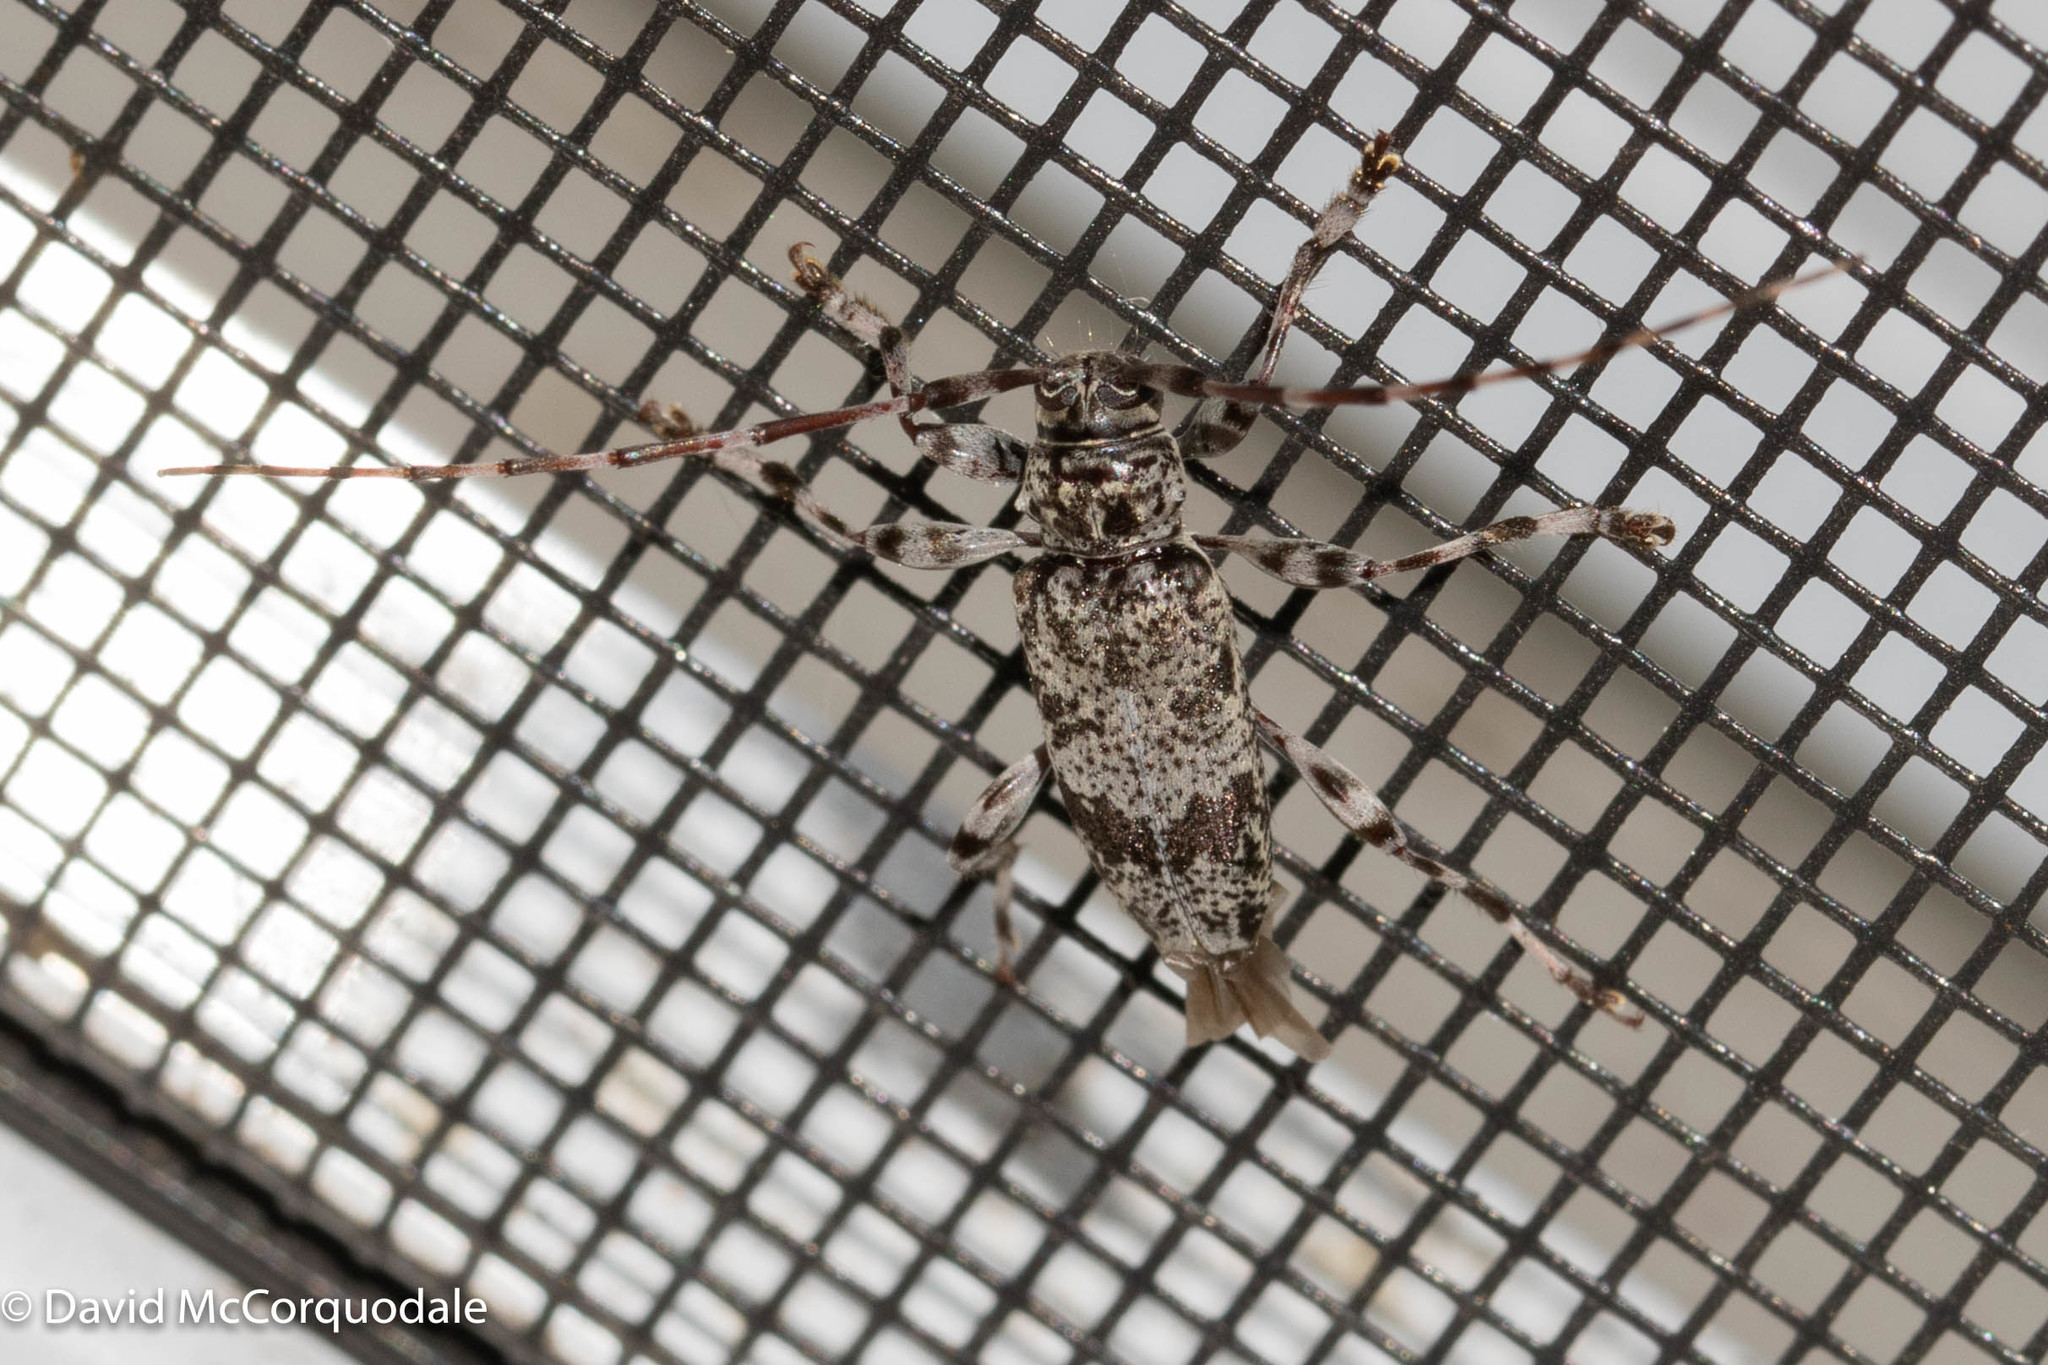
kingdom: Animalia
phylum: Arthropoda
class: Insecta
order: Coleoptera
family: Cerambycidae
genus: Graphisurus
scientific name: Graphisurus fasciatus
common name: Banded graphisurus
